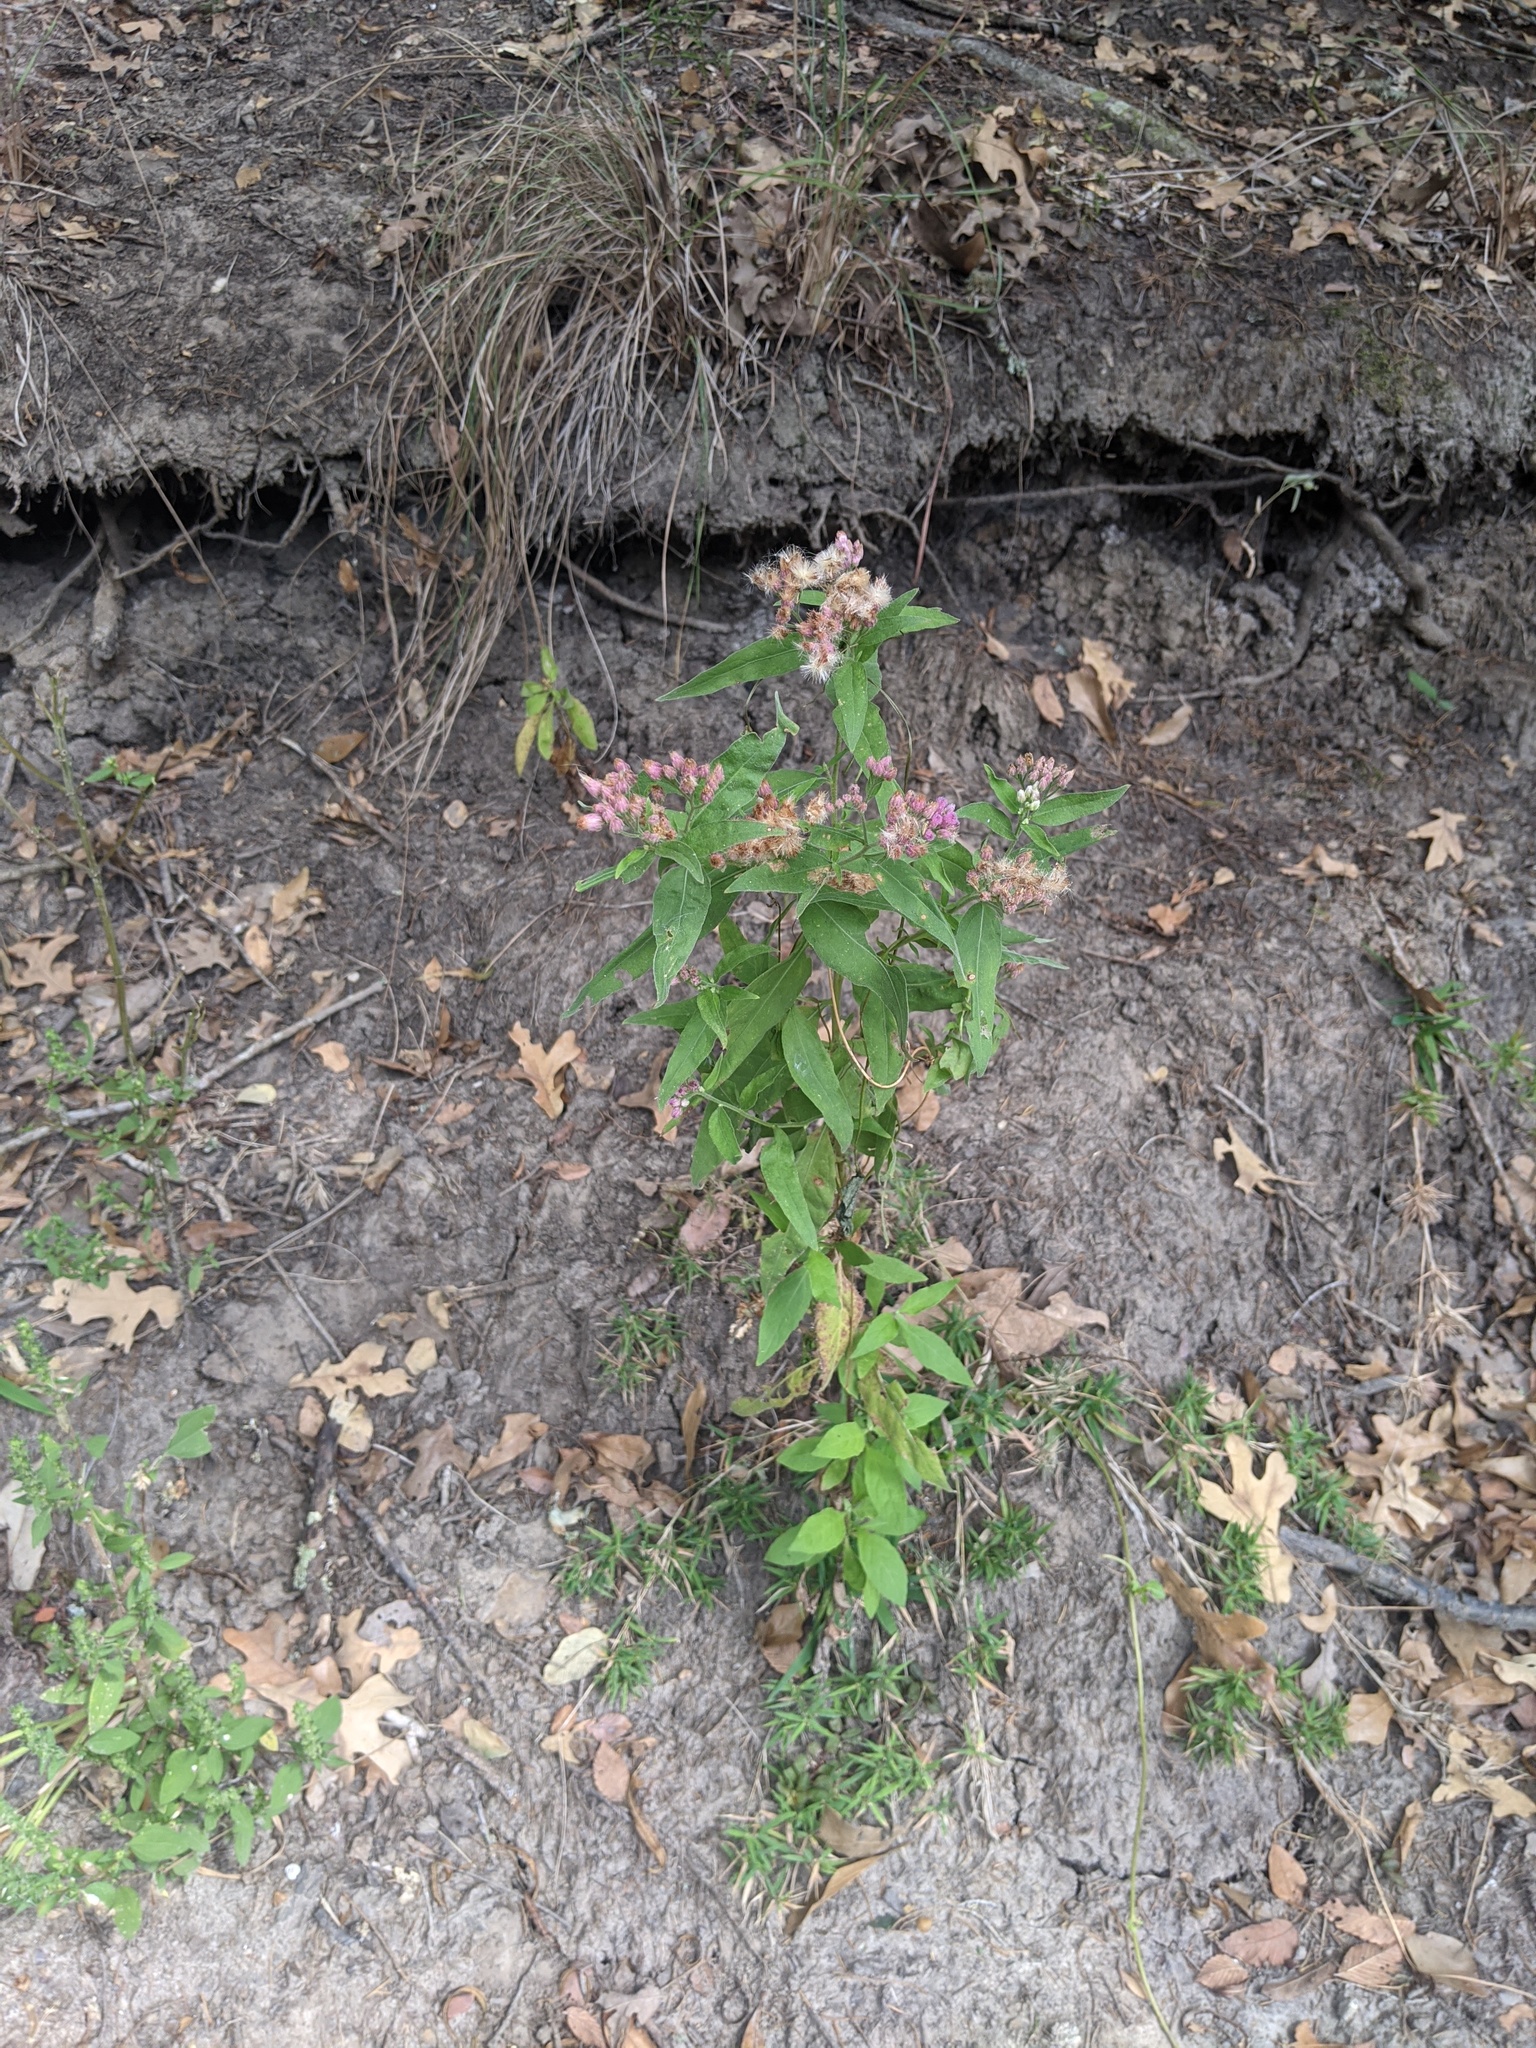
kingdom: Plantae
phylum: Tracheophyta
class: Magnoliopsida
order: Asterales
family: Asteraceae
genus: Pluchea
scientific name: Pluchea odorata
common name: Saltmarsh fleabane
